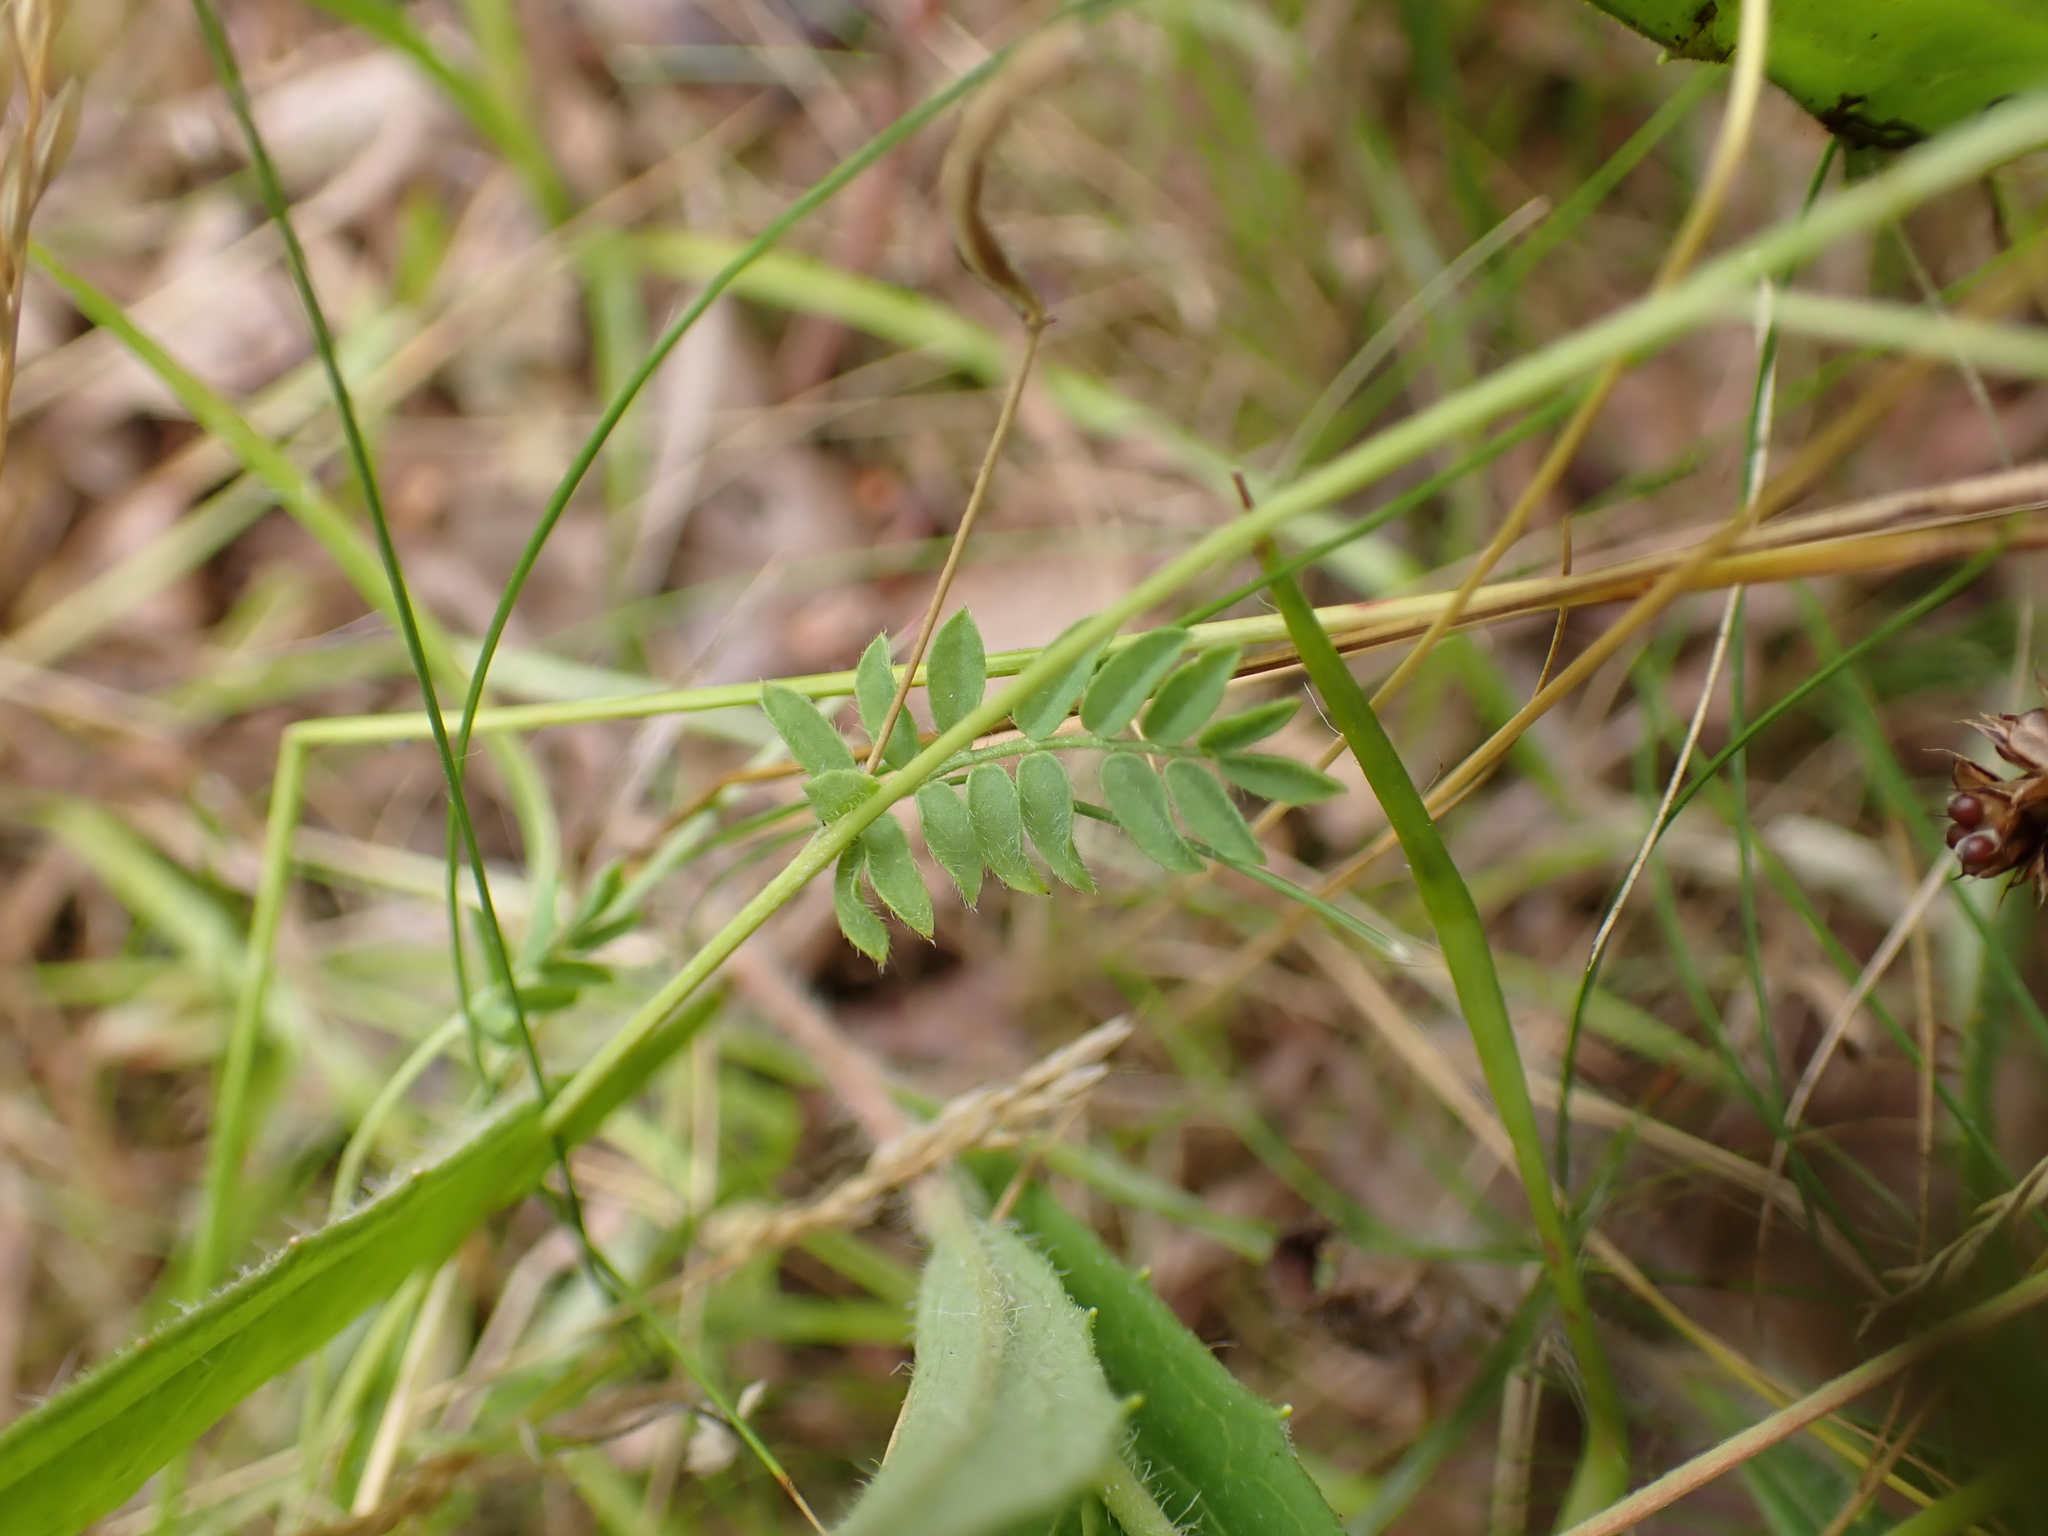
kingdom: Plantae
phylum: Tracheophyta
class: Magnoliopsida
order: Fabales
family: Fabaceae
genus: Ornithopus
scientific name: Ornithopus perpusillus
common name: Bird's-foot
